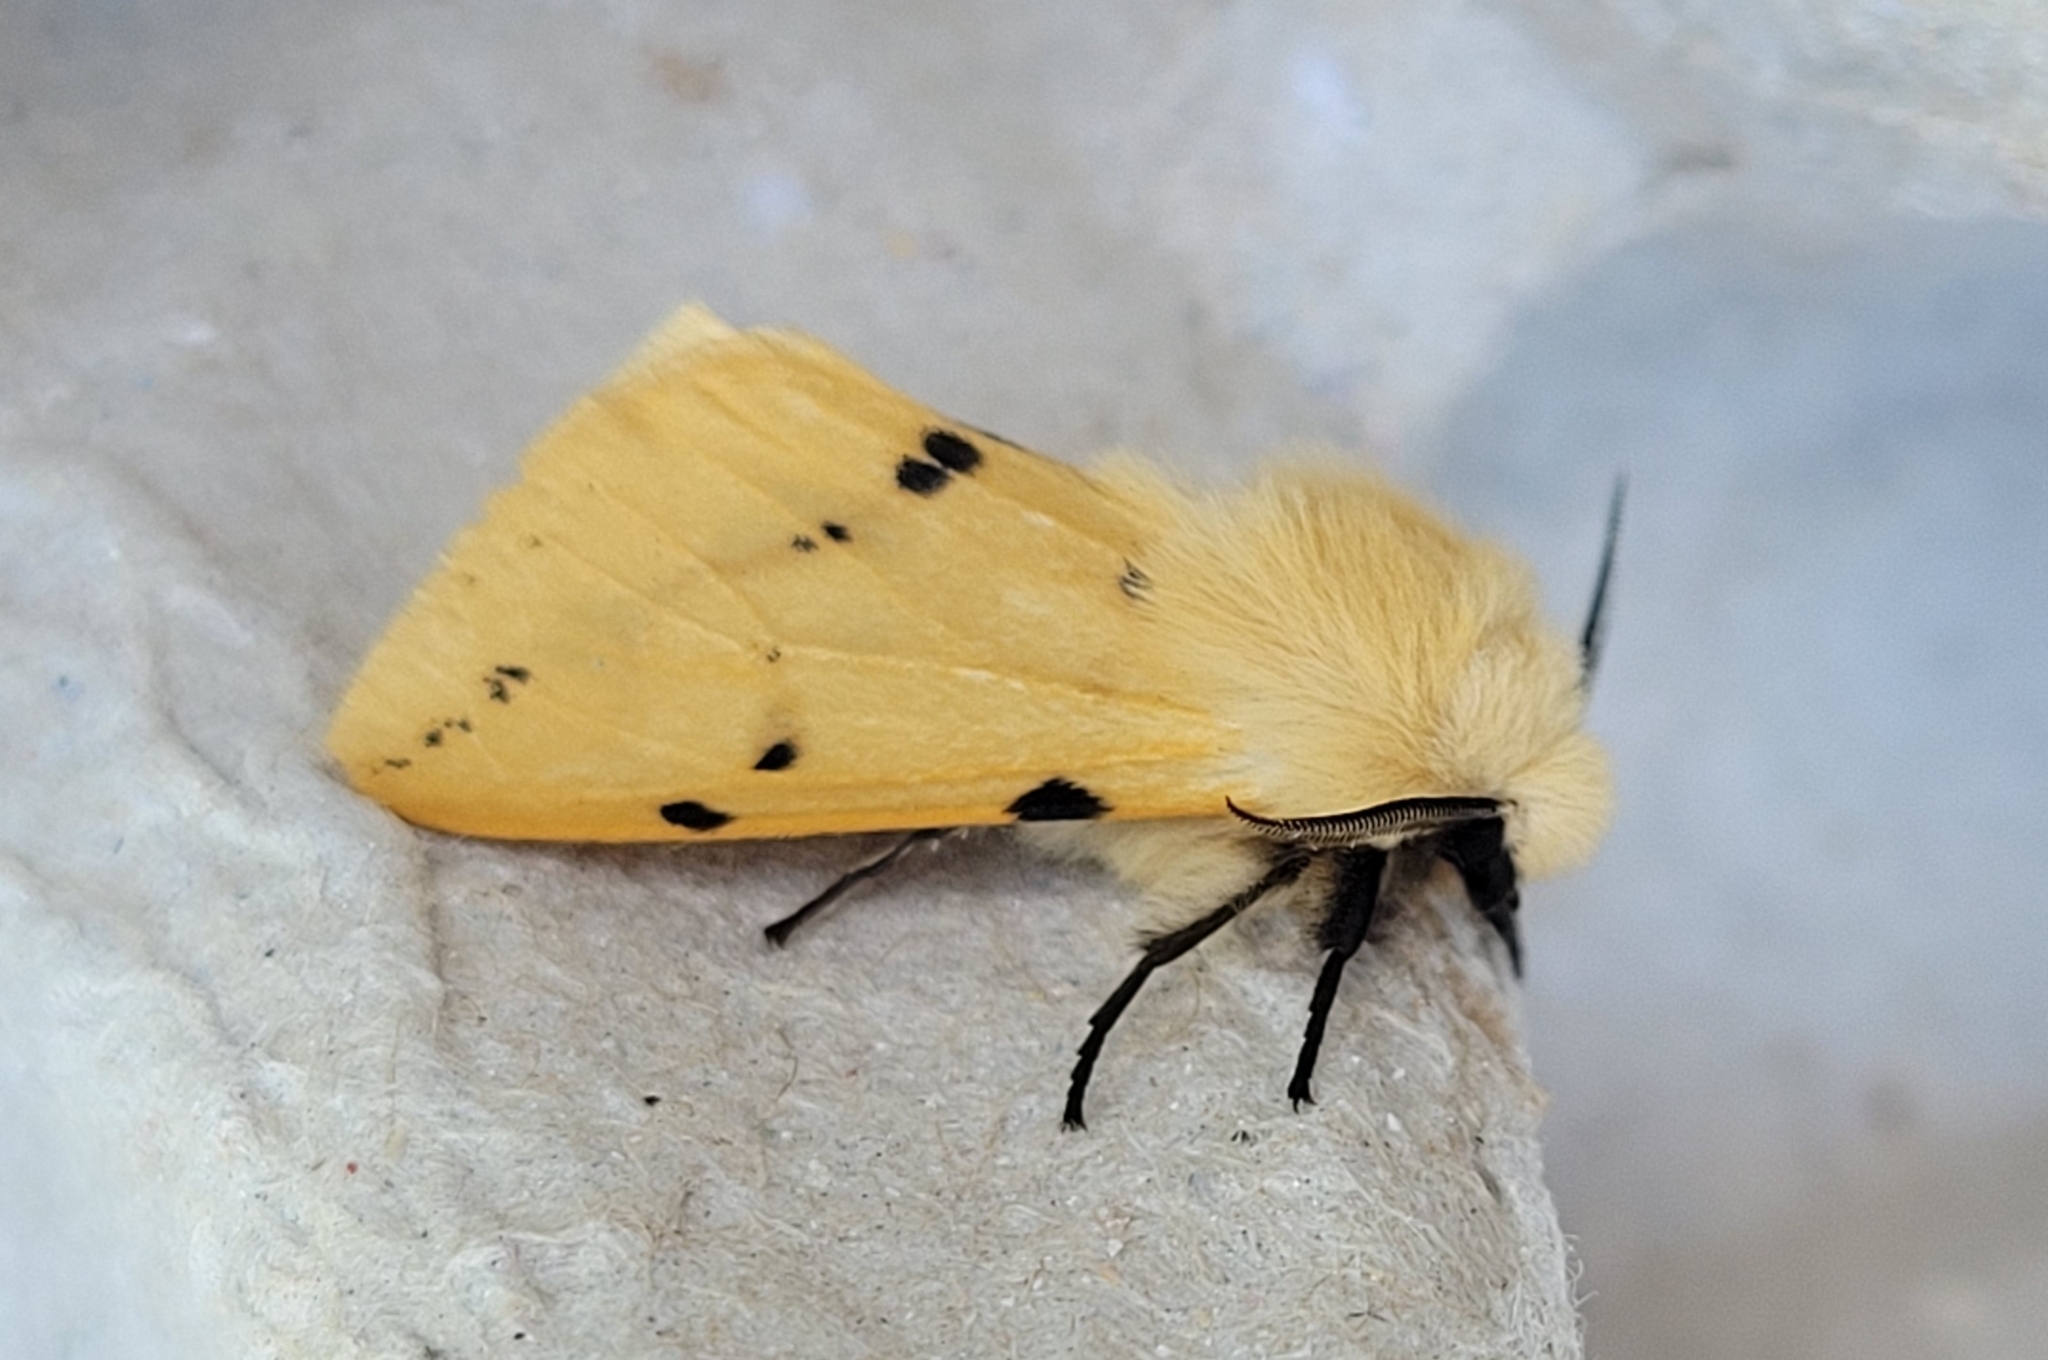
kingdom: Animalia
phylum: Arthropoda
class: Insecta
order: Lepidoptera
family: Erebidae
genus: Spilarctia
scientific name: Spilarctia lutea
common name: Buff ermine
